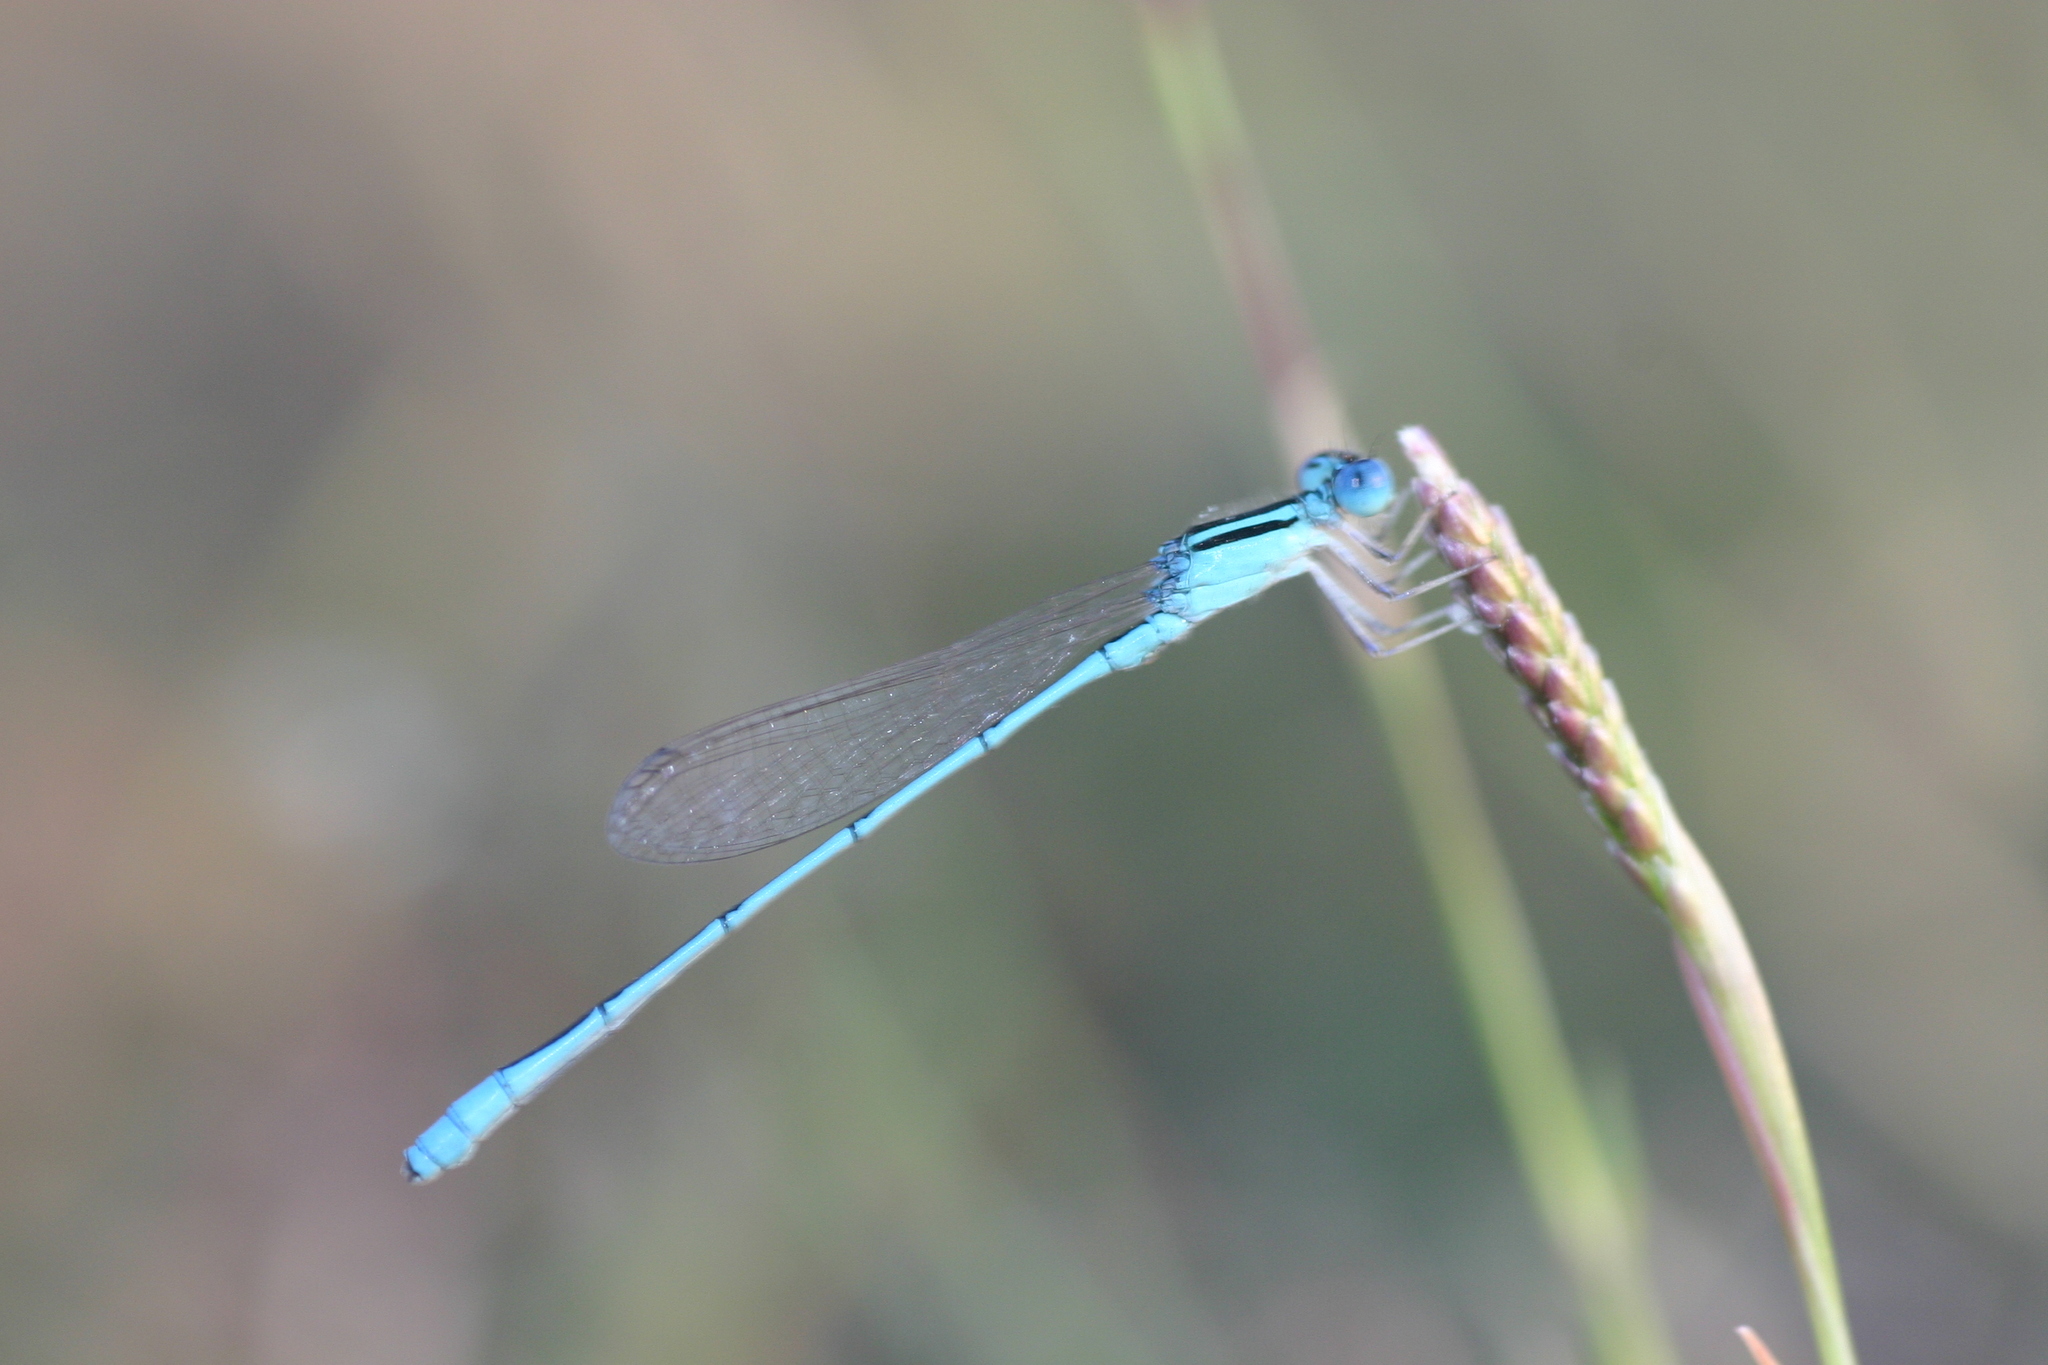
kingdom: Animalia
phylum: Arthropoda
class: Insecta
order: Odonata
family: Coenagrionidae
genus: Amphiallagma
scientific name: Amphiallagma parvum
